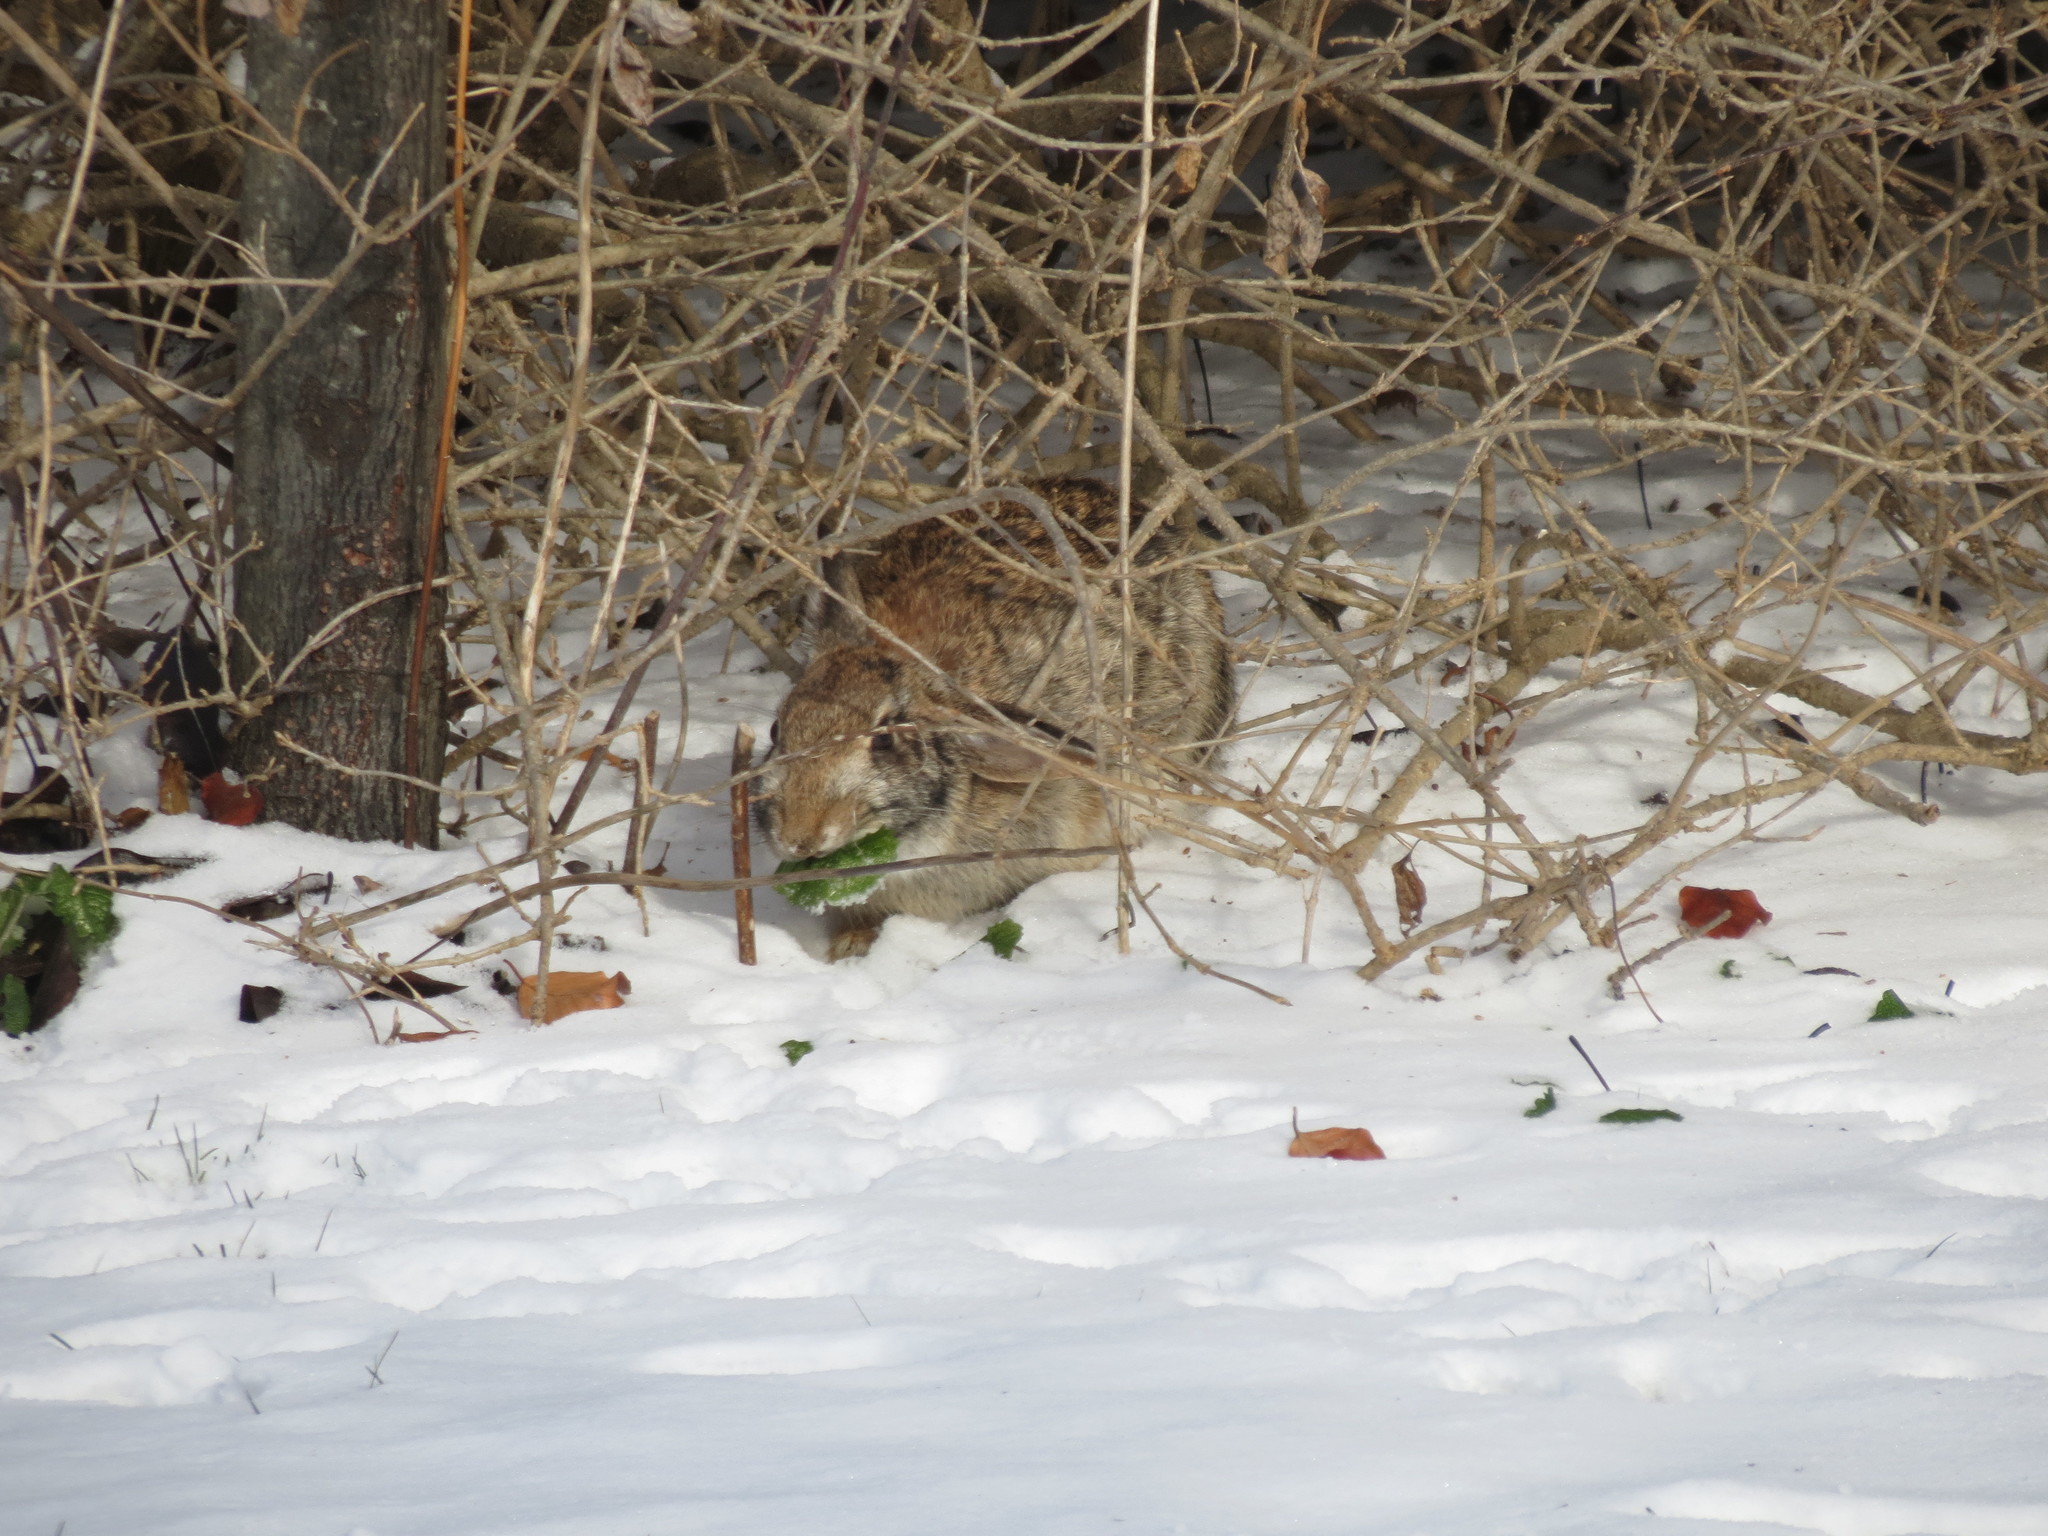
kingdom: Animalia
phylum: Chordata
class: Mammalia
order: Lagomorpha
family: Leporidae
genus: Sylvilagus
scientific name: Sylvilagus floridanus
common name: Eastern cottontail
